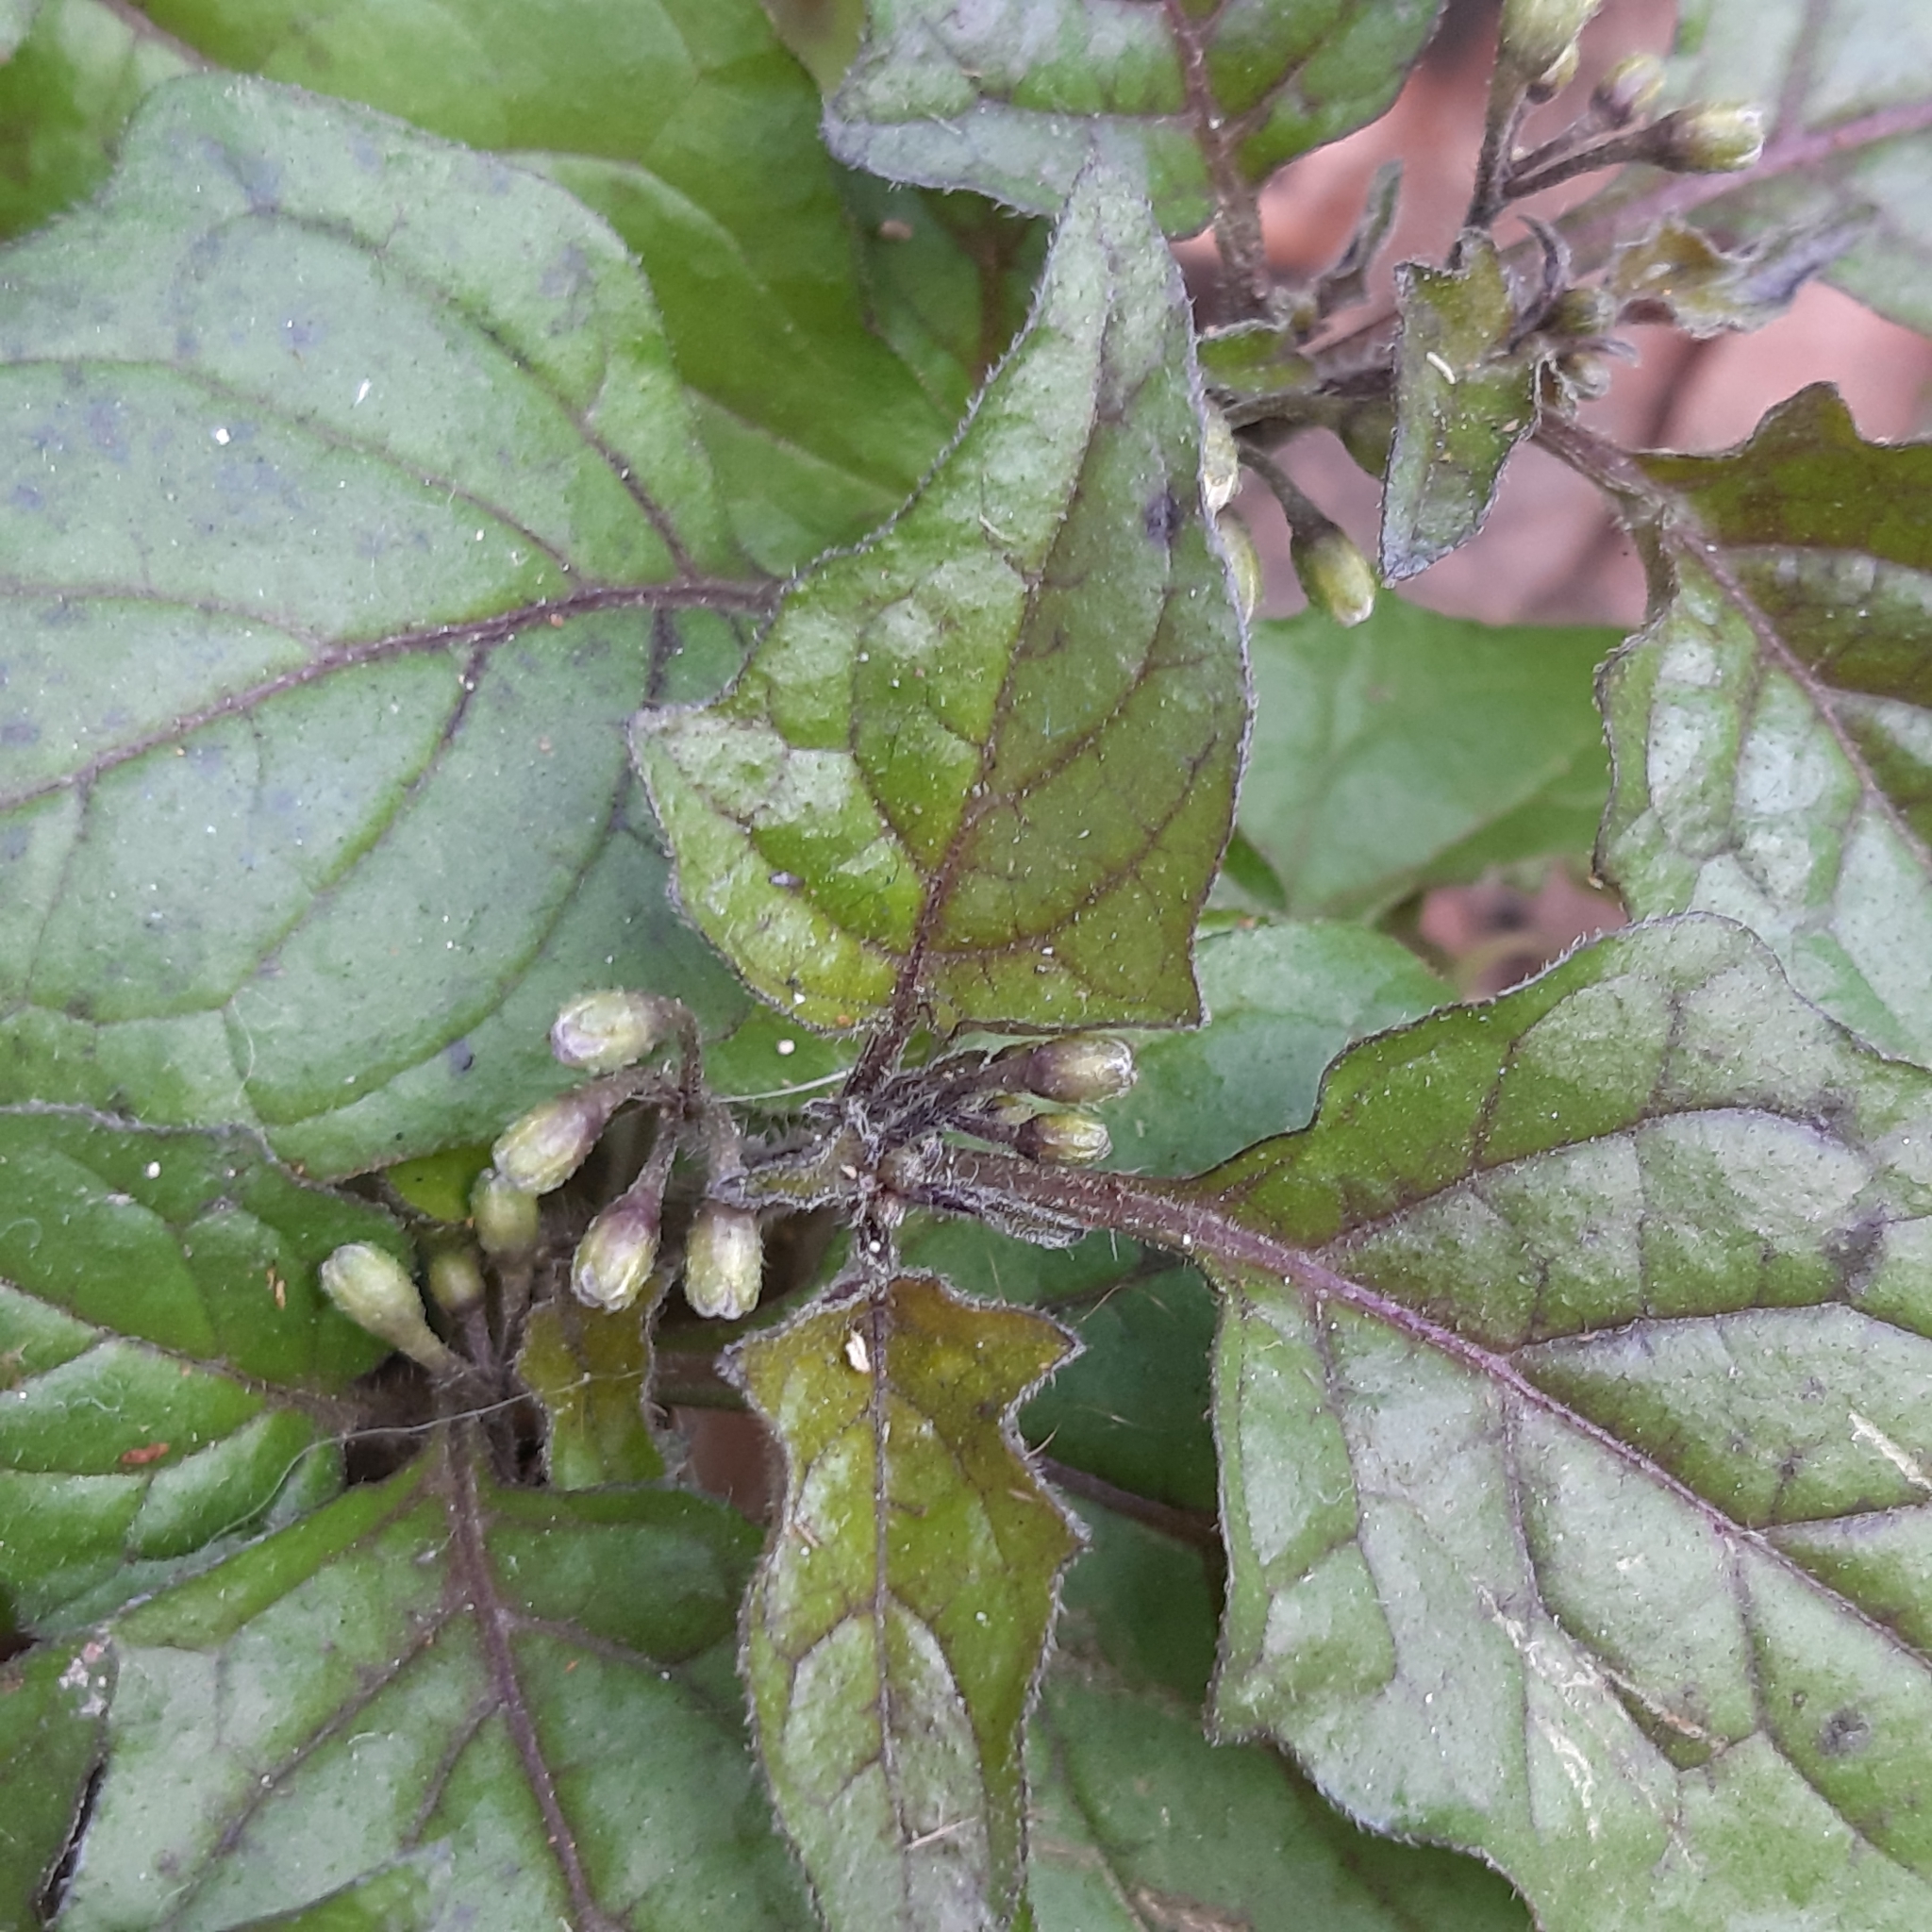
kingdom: Plantae
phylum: Tracheophyta
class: Magnoliopsida
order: Solanales
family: Solanaceae
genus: Solanum
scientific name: Solanum nigrum
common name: Black nightshade
